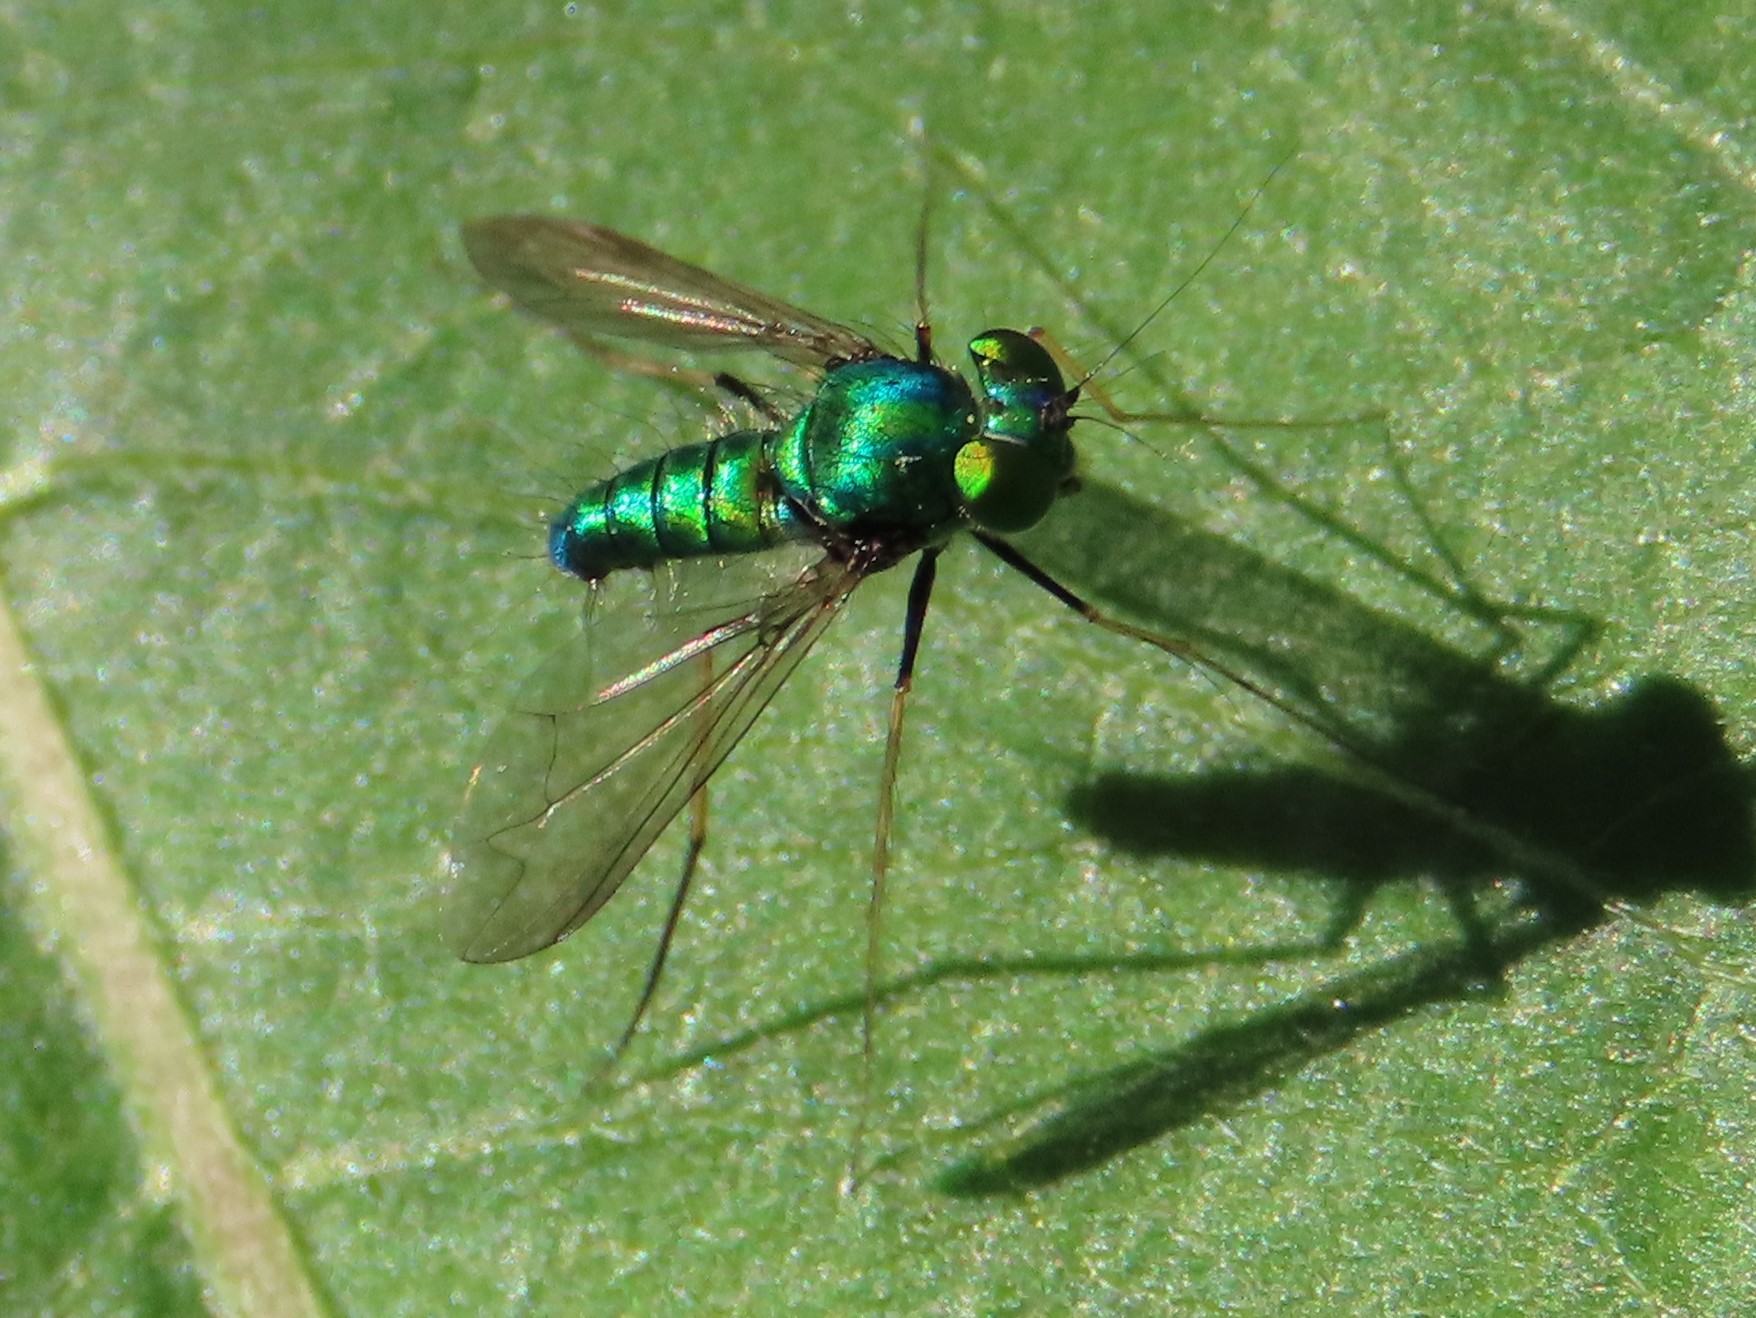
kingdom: Animalia
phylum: Arthropoda
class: Insecta
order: Diptera
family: Dolichopodidae
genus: Condylostylus
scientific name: Condylostylus comatus
